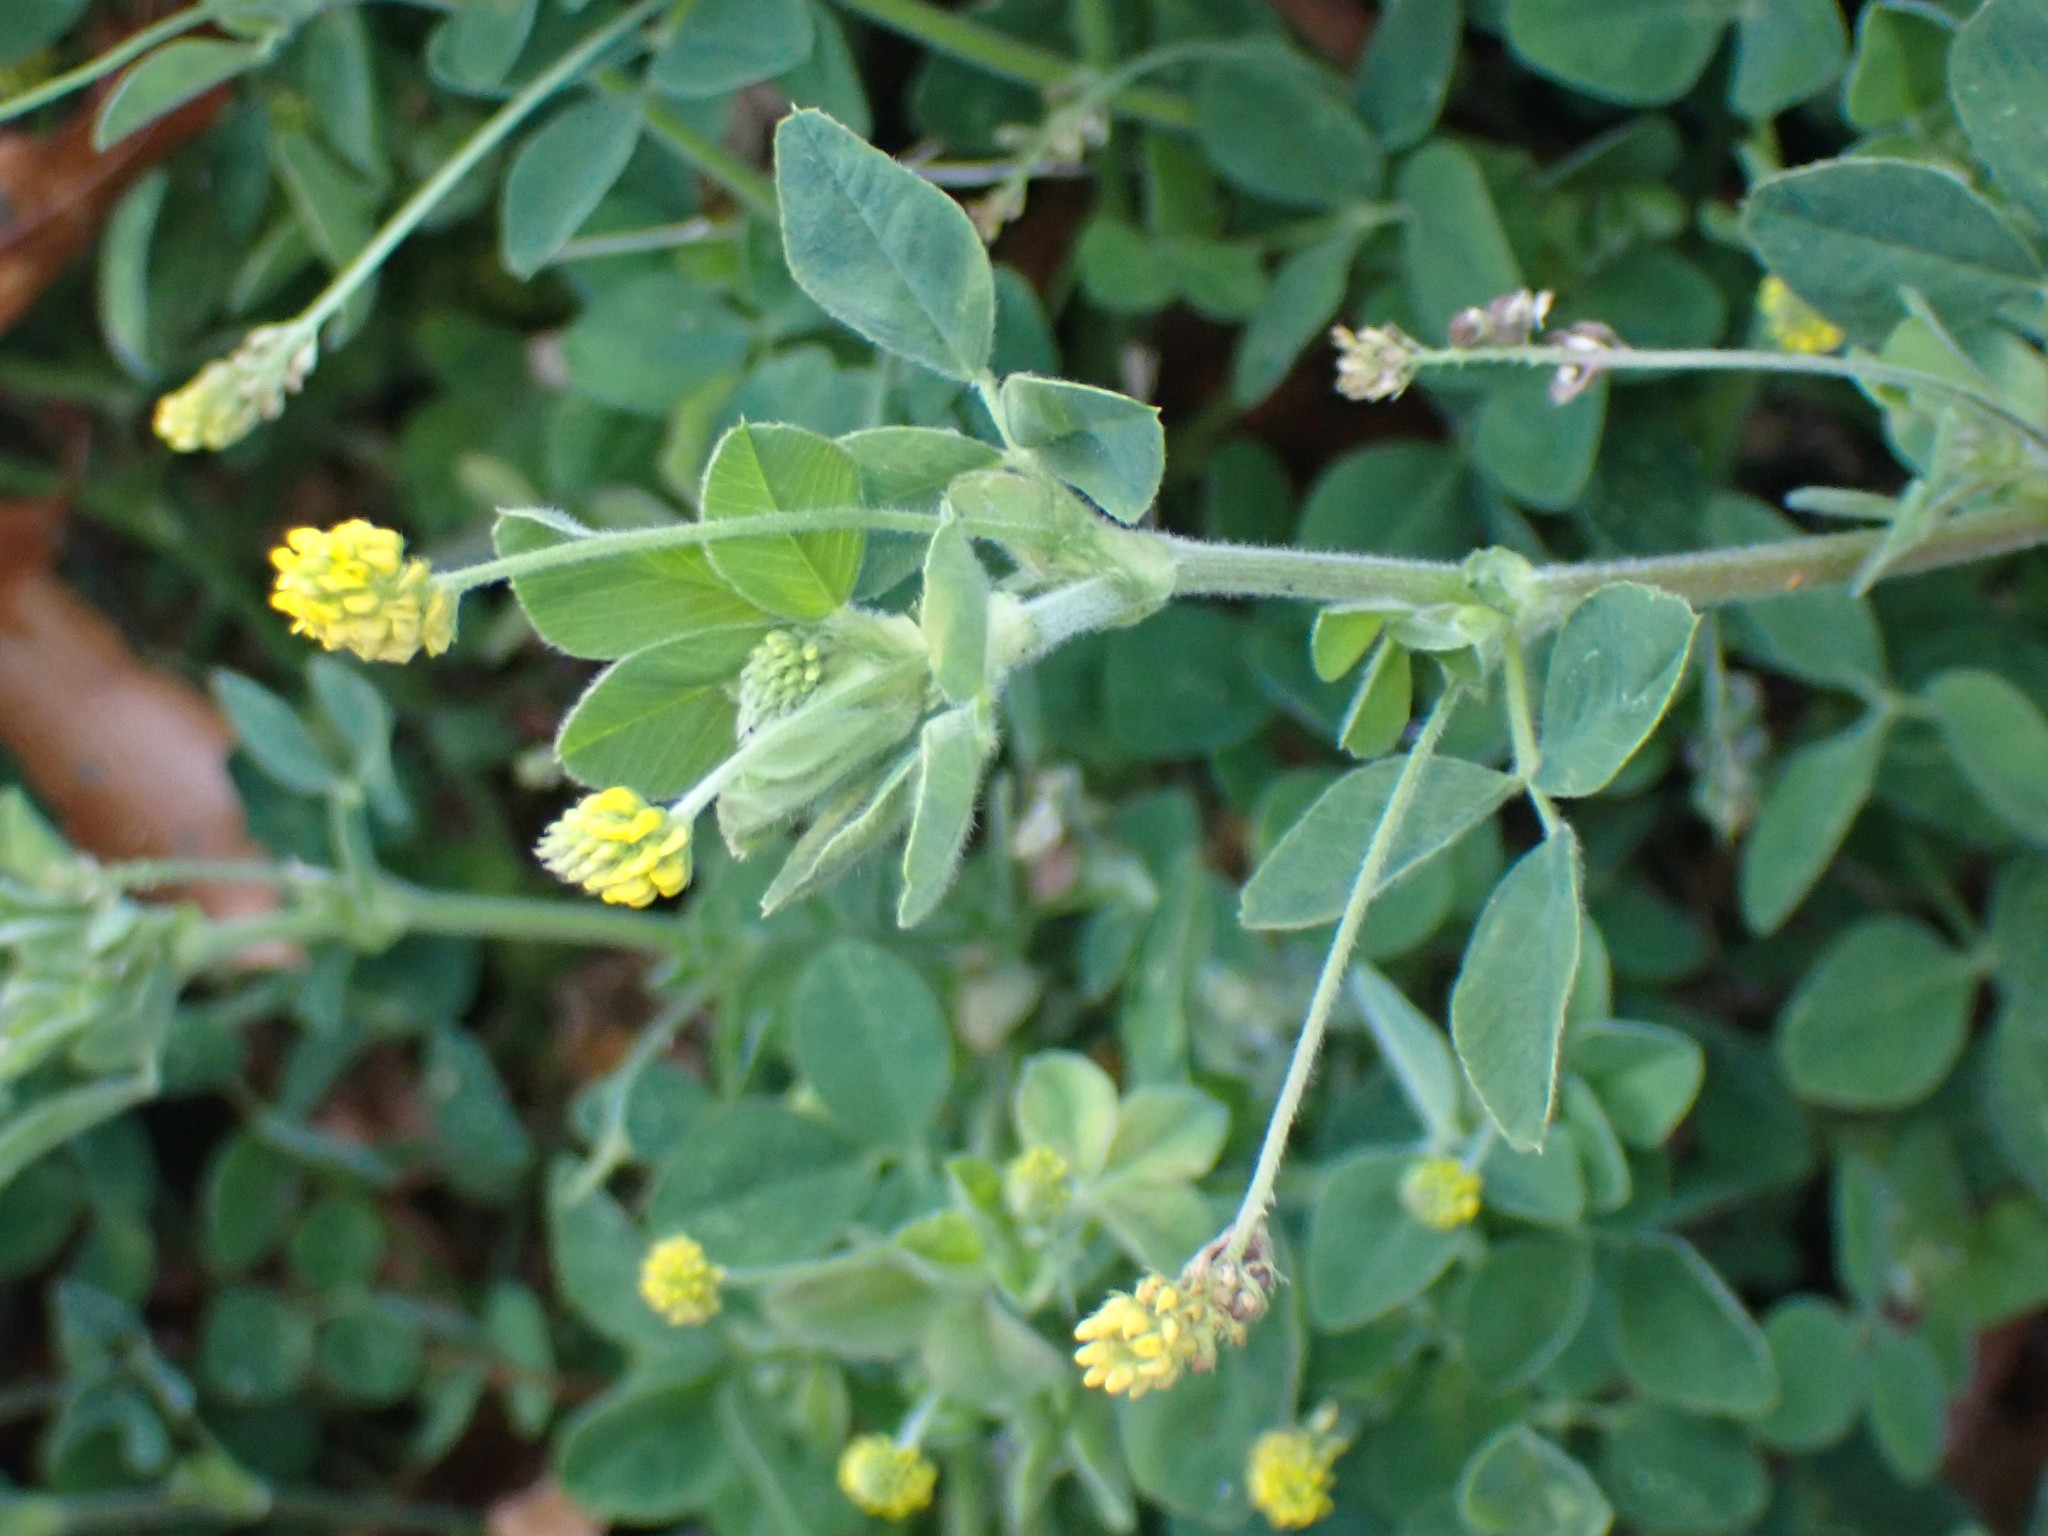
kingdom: Plantae
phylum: Tracheophyta
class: Magnoliopsida
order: Fabales
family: Fabaceae
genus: Medicago
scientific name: Medicago lupulina
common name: Black medick
